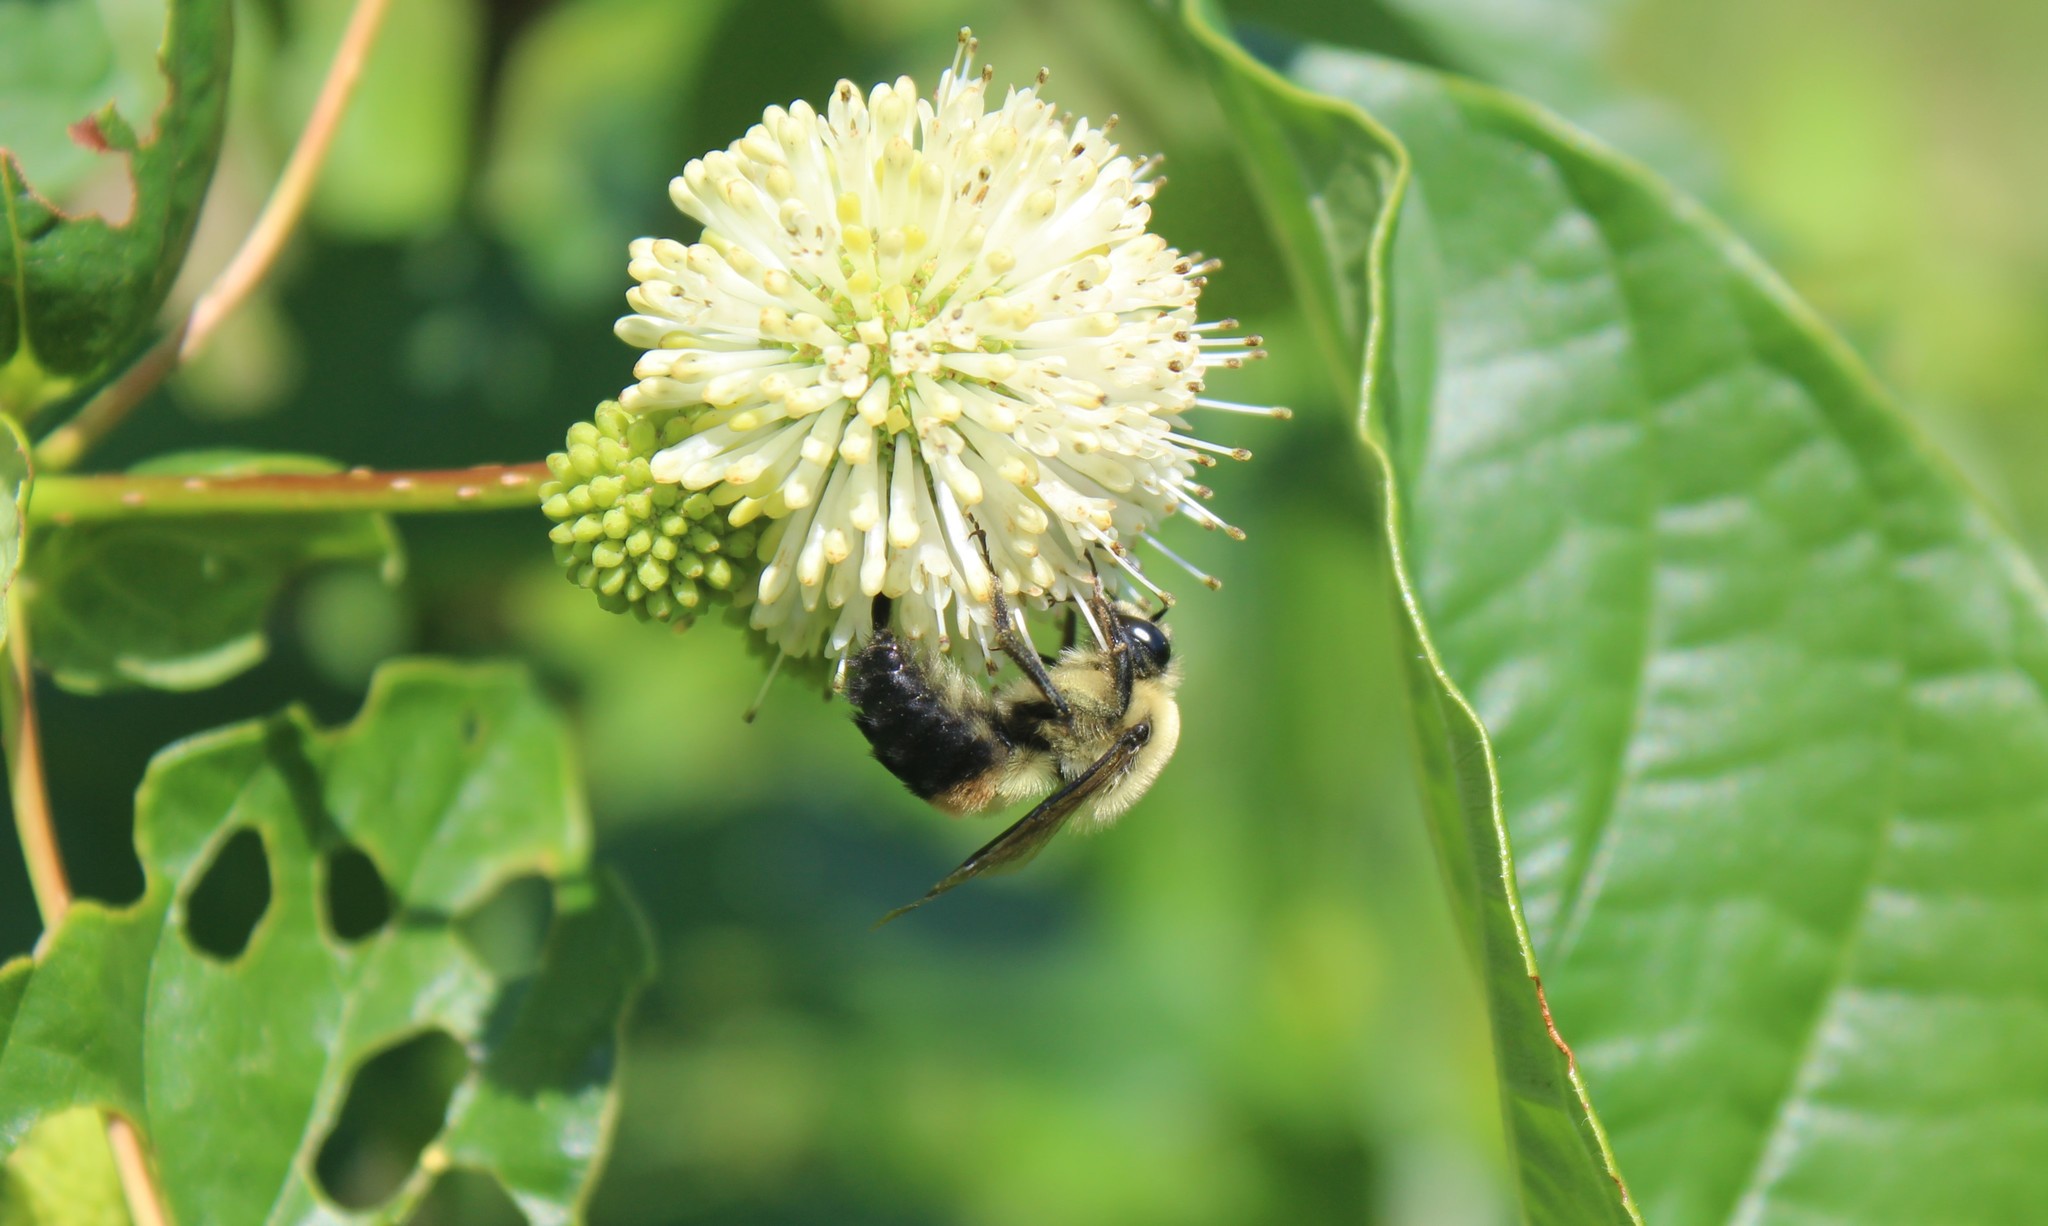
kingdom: Animalia
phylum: Arthropoda
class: Insecta
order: Hymenoptera
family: Apidae
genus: Bombus
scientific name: Bombus griseocollis
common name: Brown-belted bumble bee
